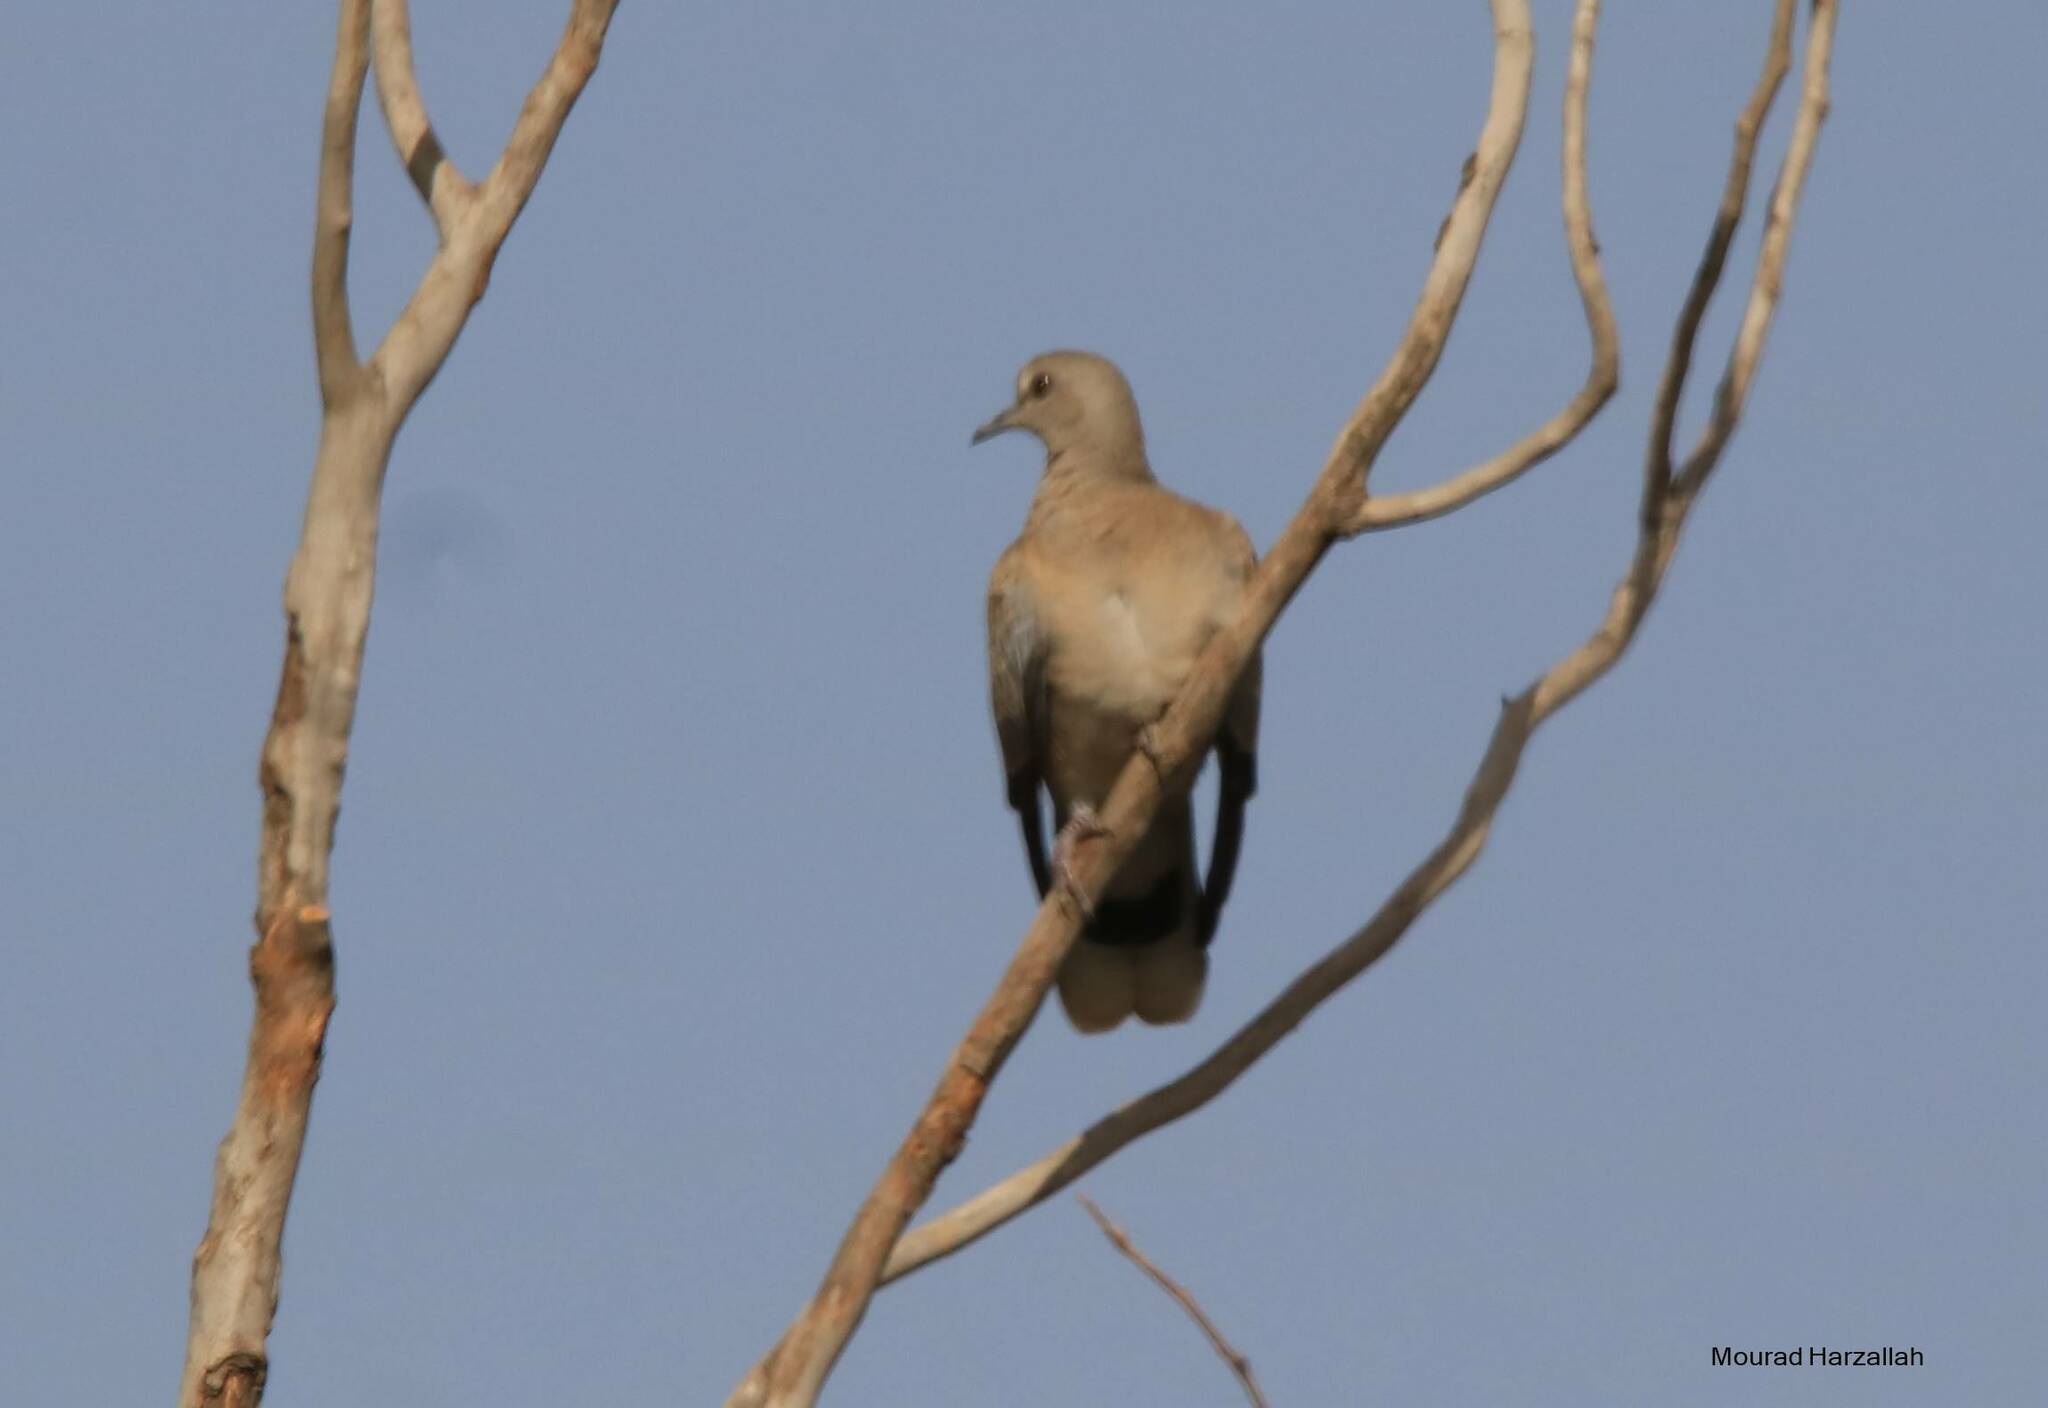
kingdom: Animalia
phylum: Chordata
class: Aves
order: Columbiformes
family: Columbidae
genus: Streptopelia
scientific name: Streptopelia turtur
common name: European turtle dove
